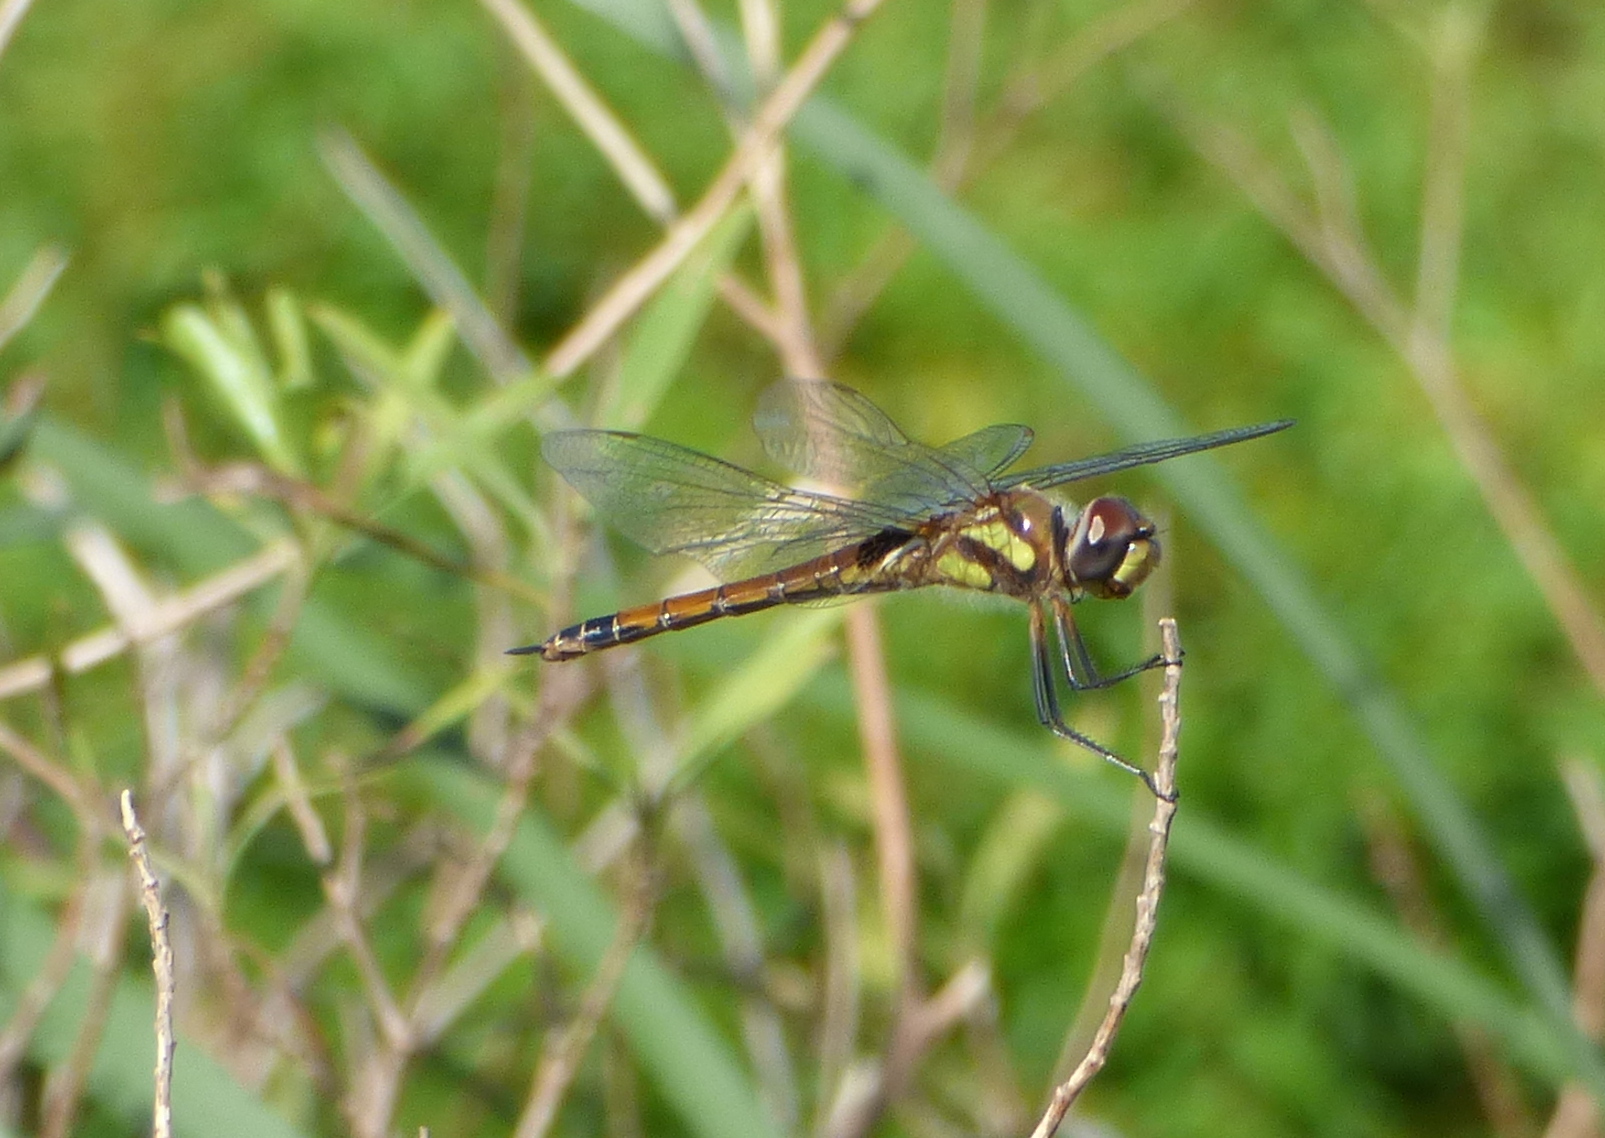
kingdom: Animalia
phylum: Arthropoda
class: Insecta
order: Odonata
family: Libellulidae
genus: Tramea
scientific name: Tramea cophysa
